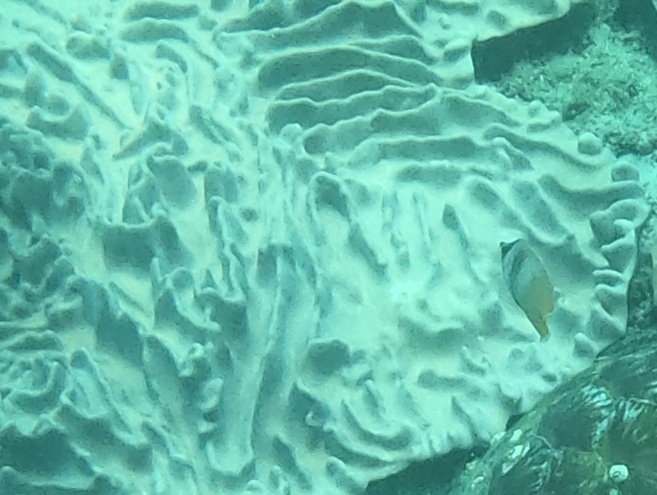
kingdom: Animalia
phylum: Chordata
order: Perciformes
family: Chaetodontidae
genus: Chaetodon
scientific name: Chaetodon kleinii
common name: Klein's butterflyfish
